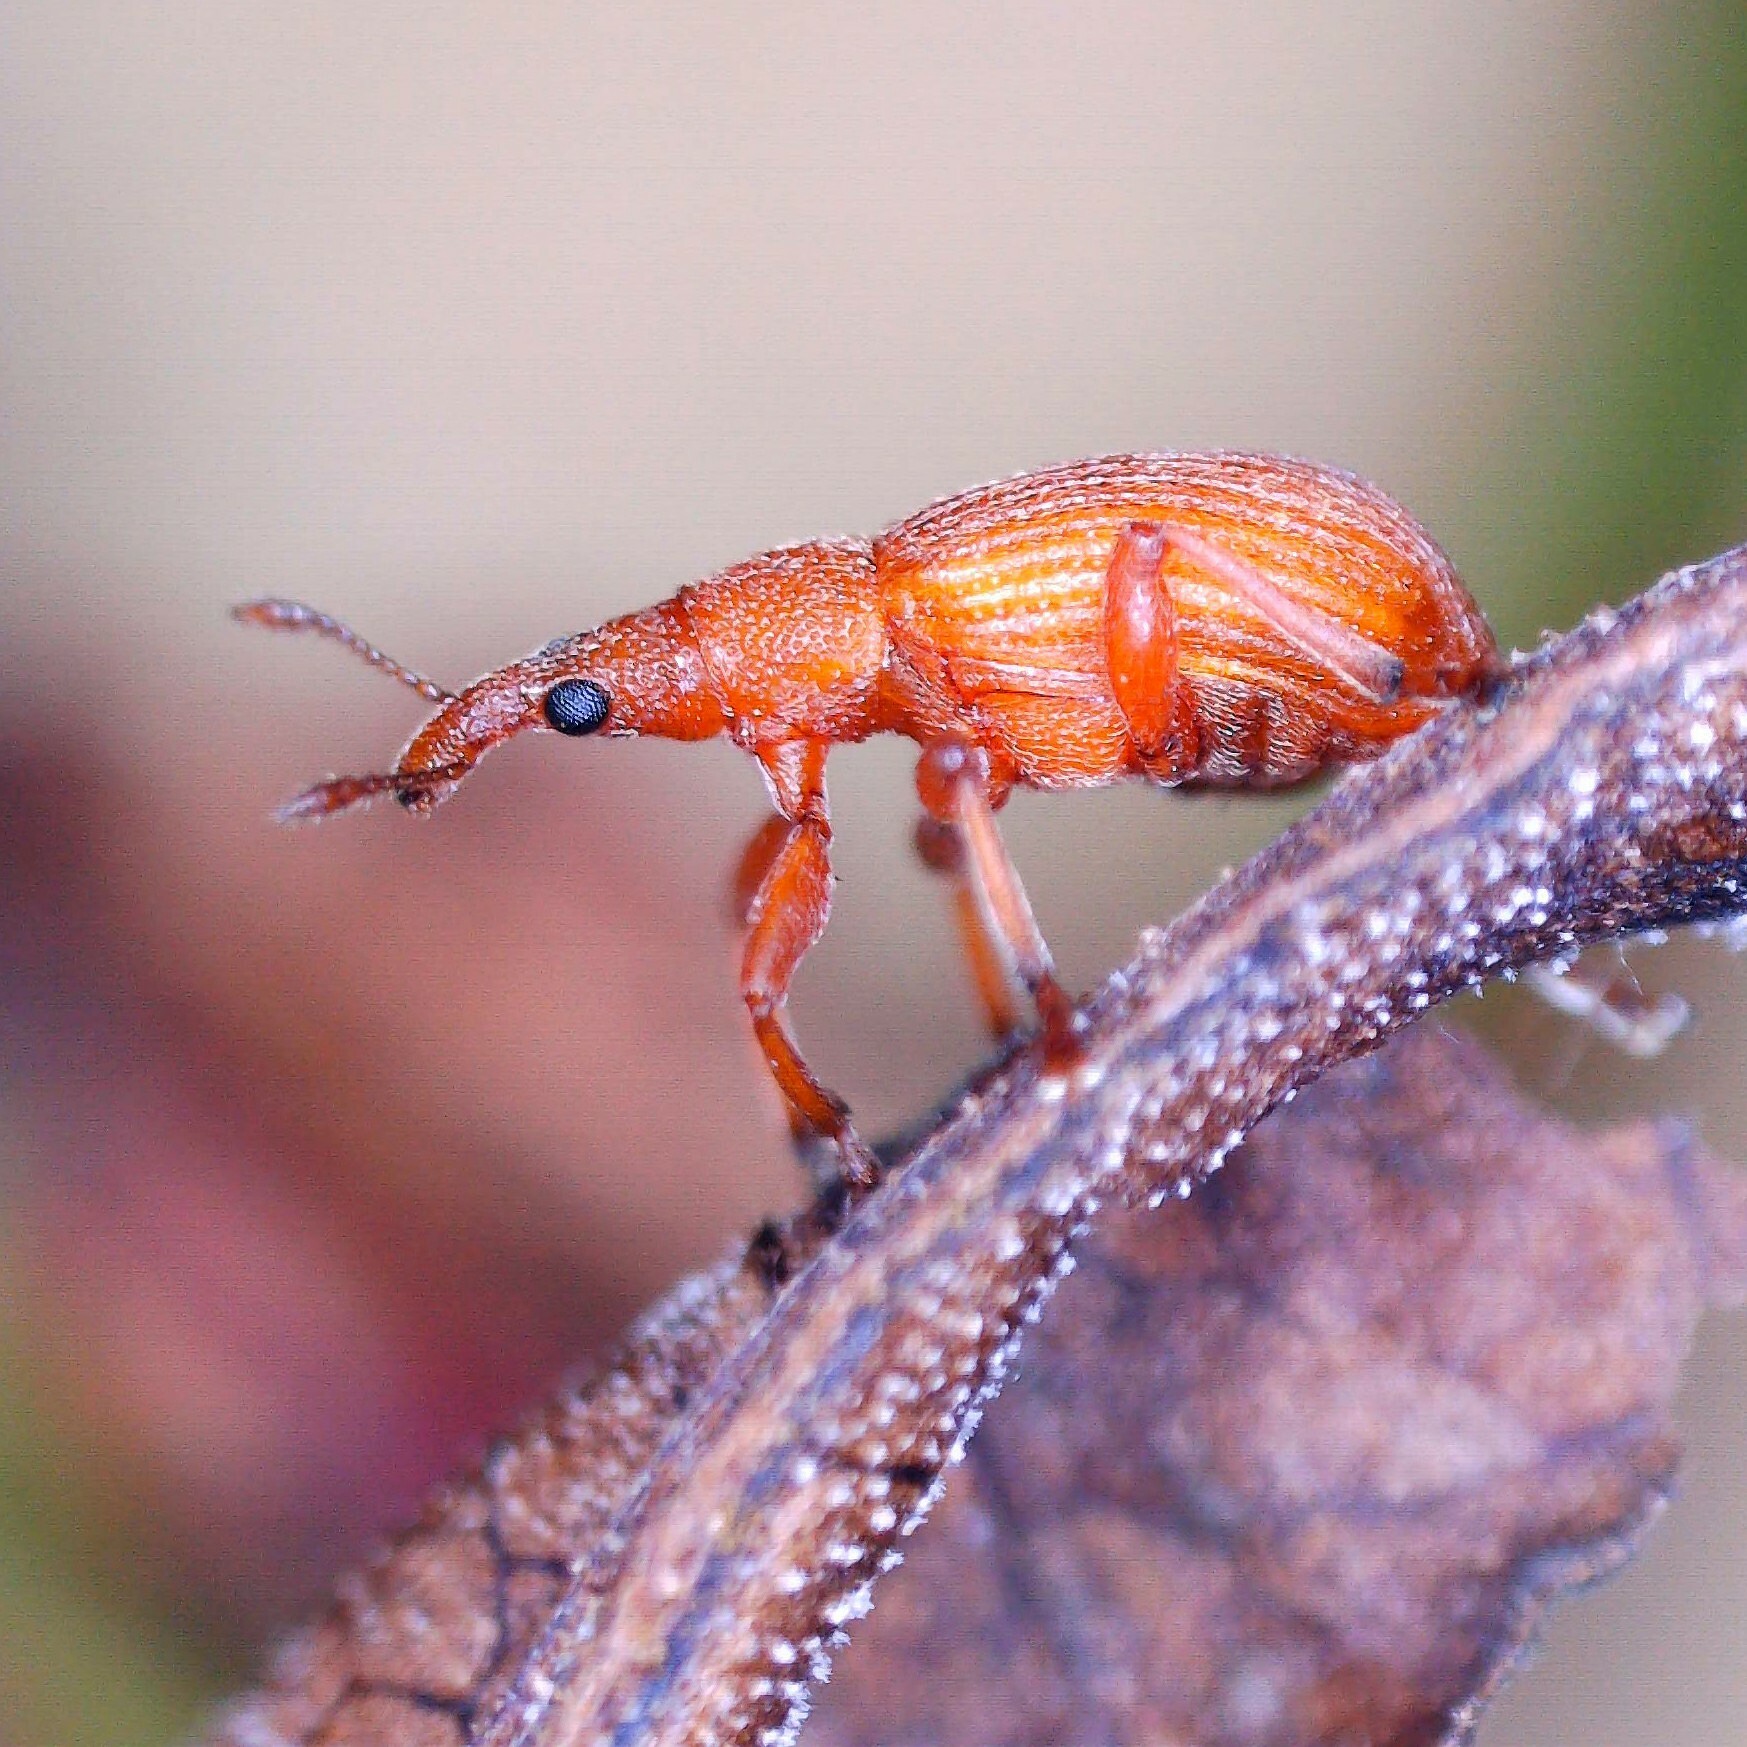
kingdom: Animalia
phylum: Arthropoda
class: Insecta
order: Coleoptera
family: Apionidae
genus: Apion
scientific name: Apion frumentarium
